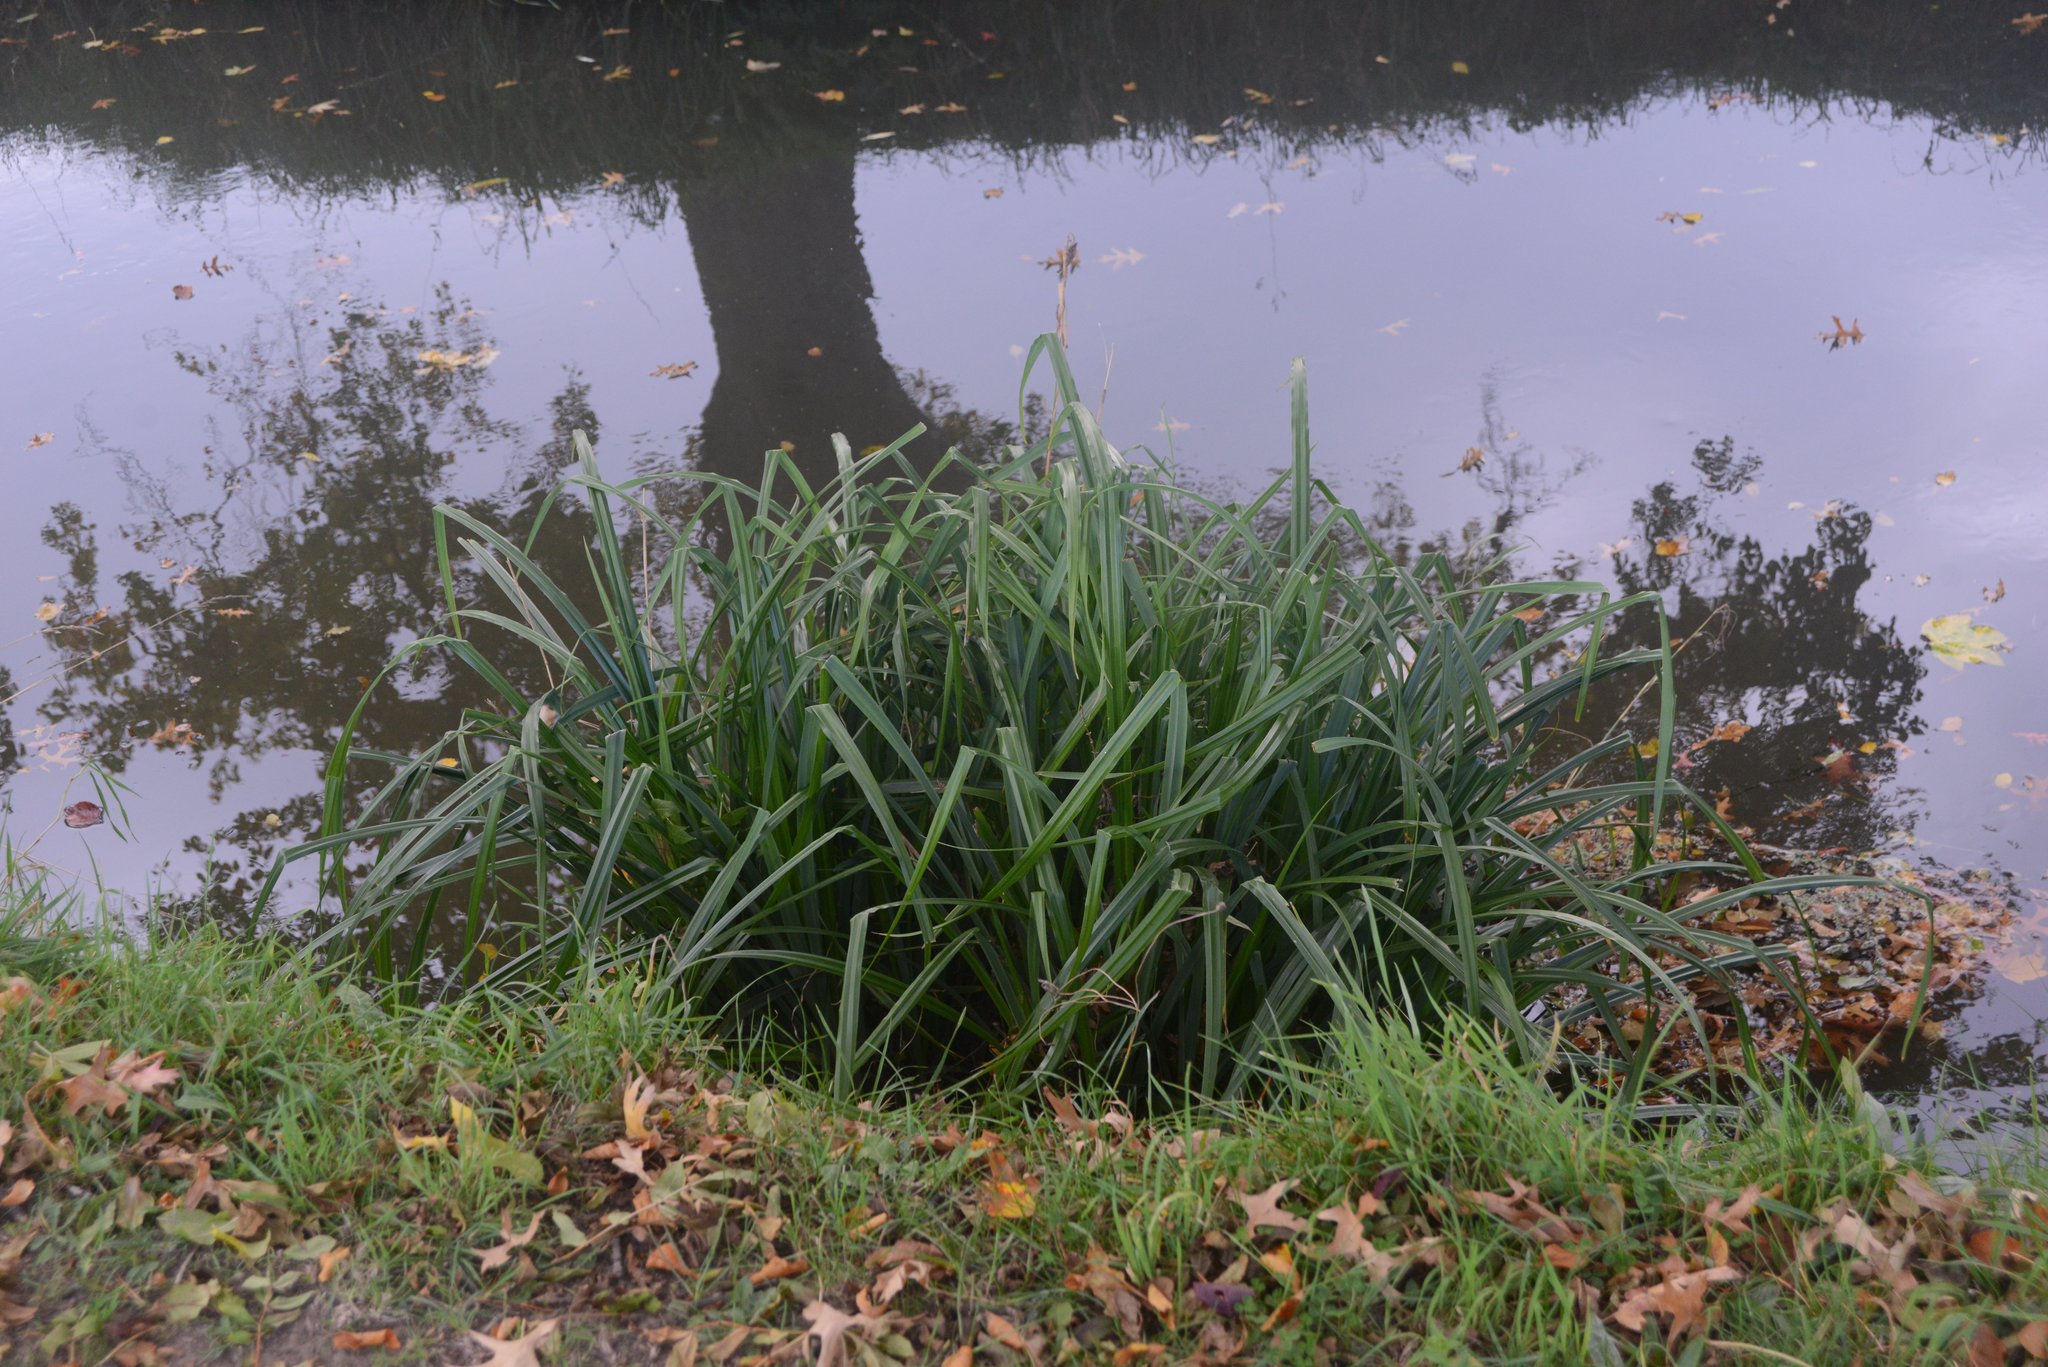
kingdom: Plantae
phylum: Tracheophyta
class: Liliopsida
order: Poales
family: Cyperaceae
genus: Carex
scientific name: Carex pendula
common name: Pendulous sedge
